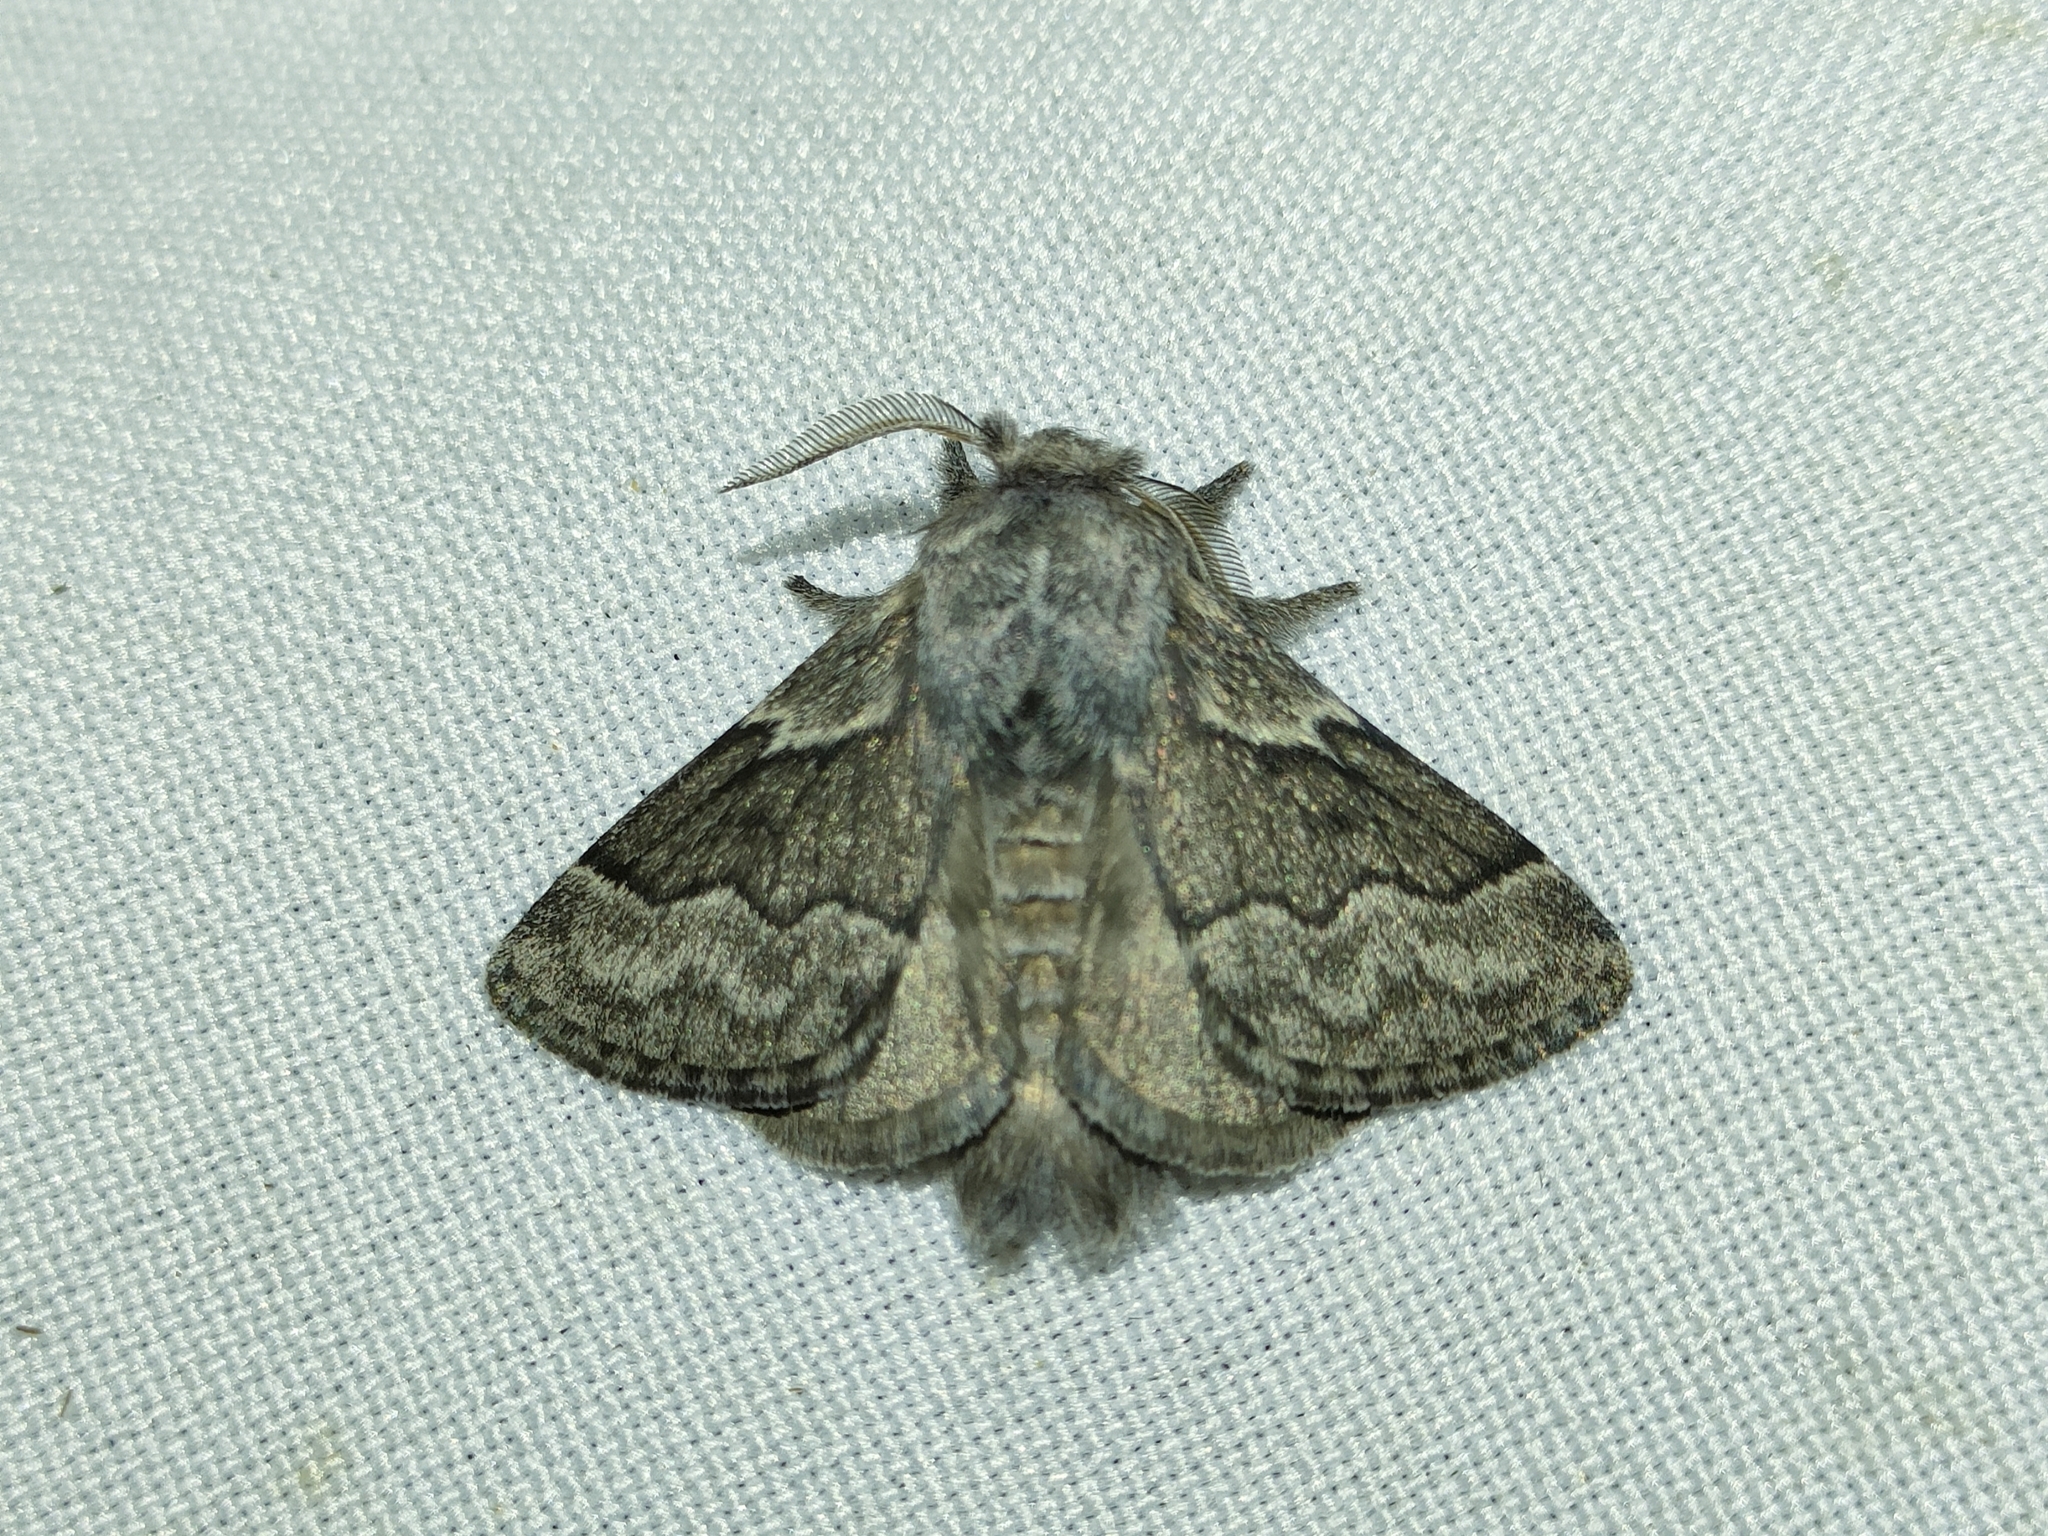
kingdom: Animalia
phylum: Arthropoda
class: Insecta
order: Lepidoptera
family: Lasiocampidae
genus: Trichiura
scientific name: Trichiura crataegi
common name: Pale eggar
